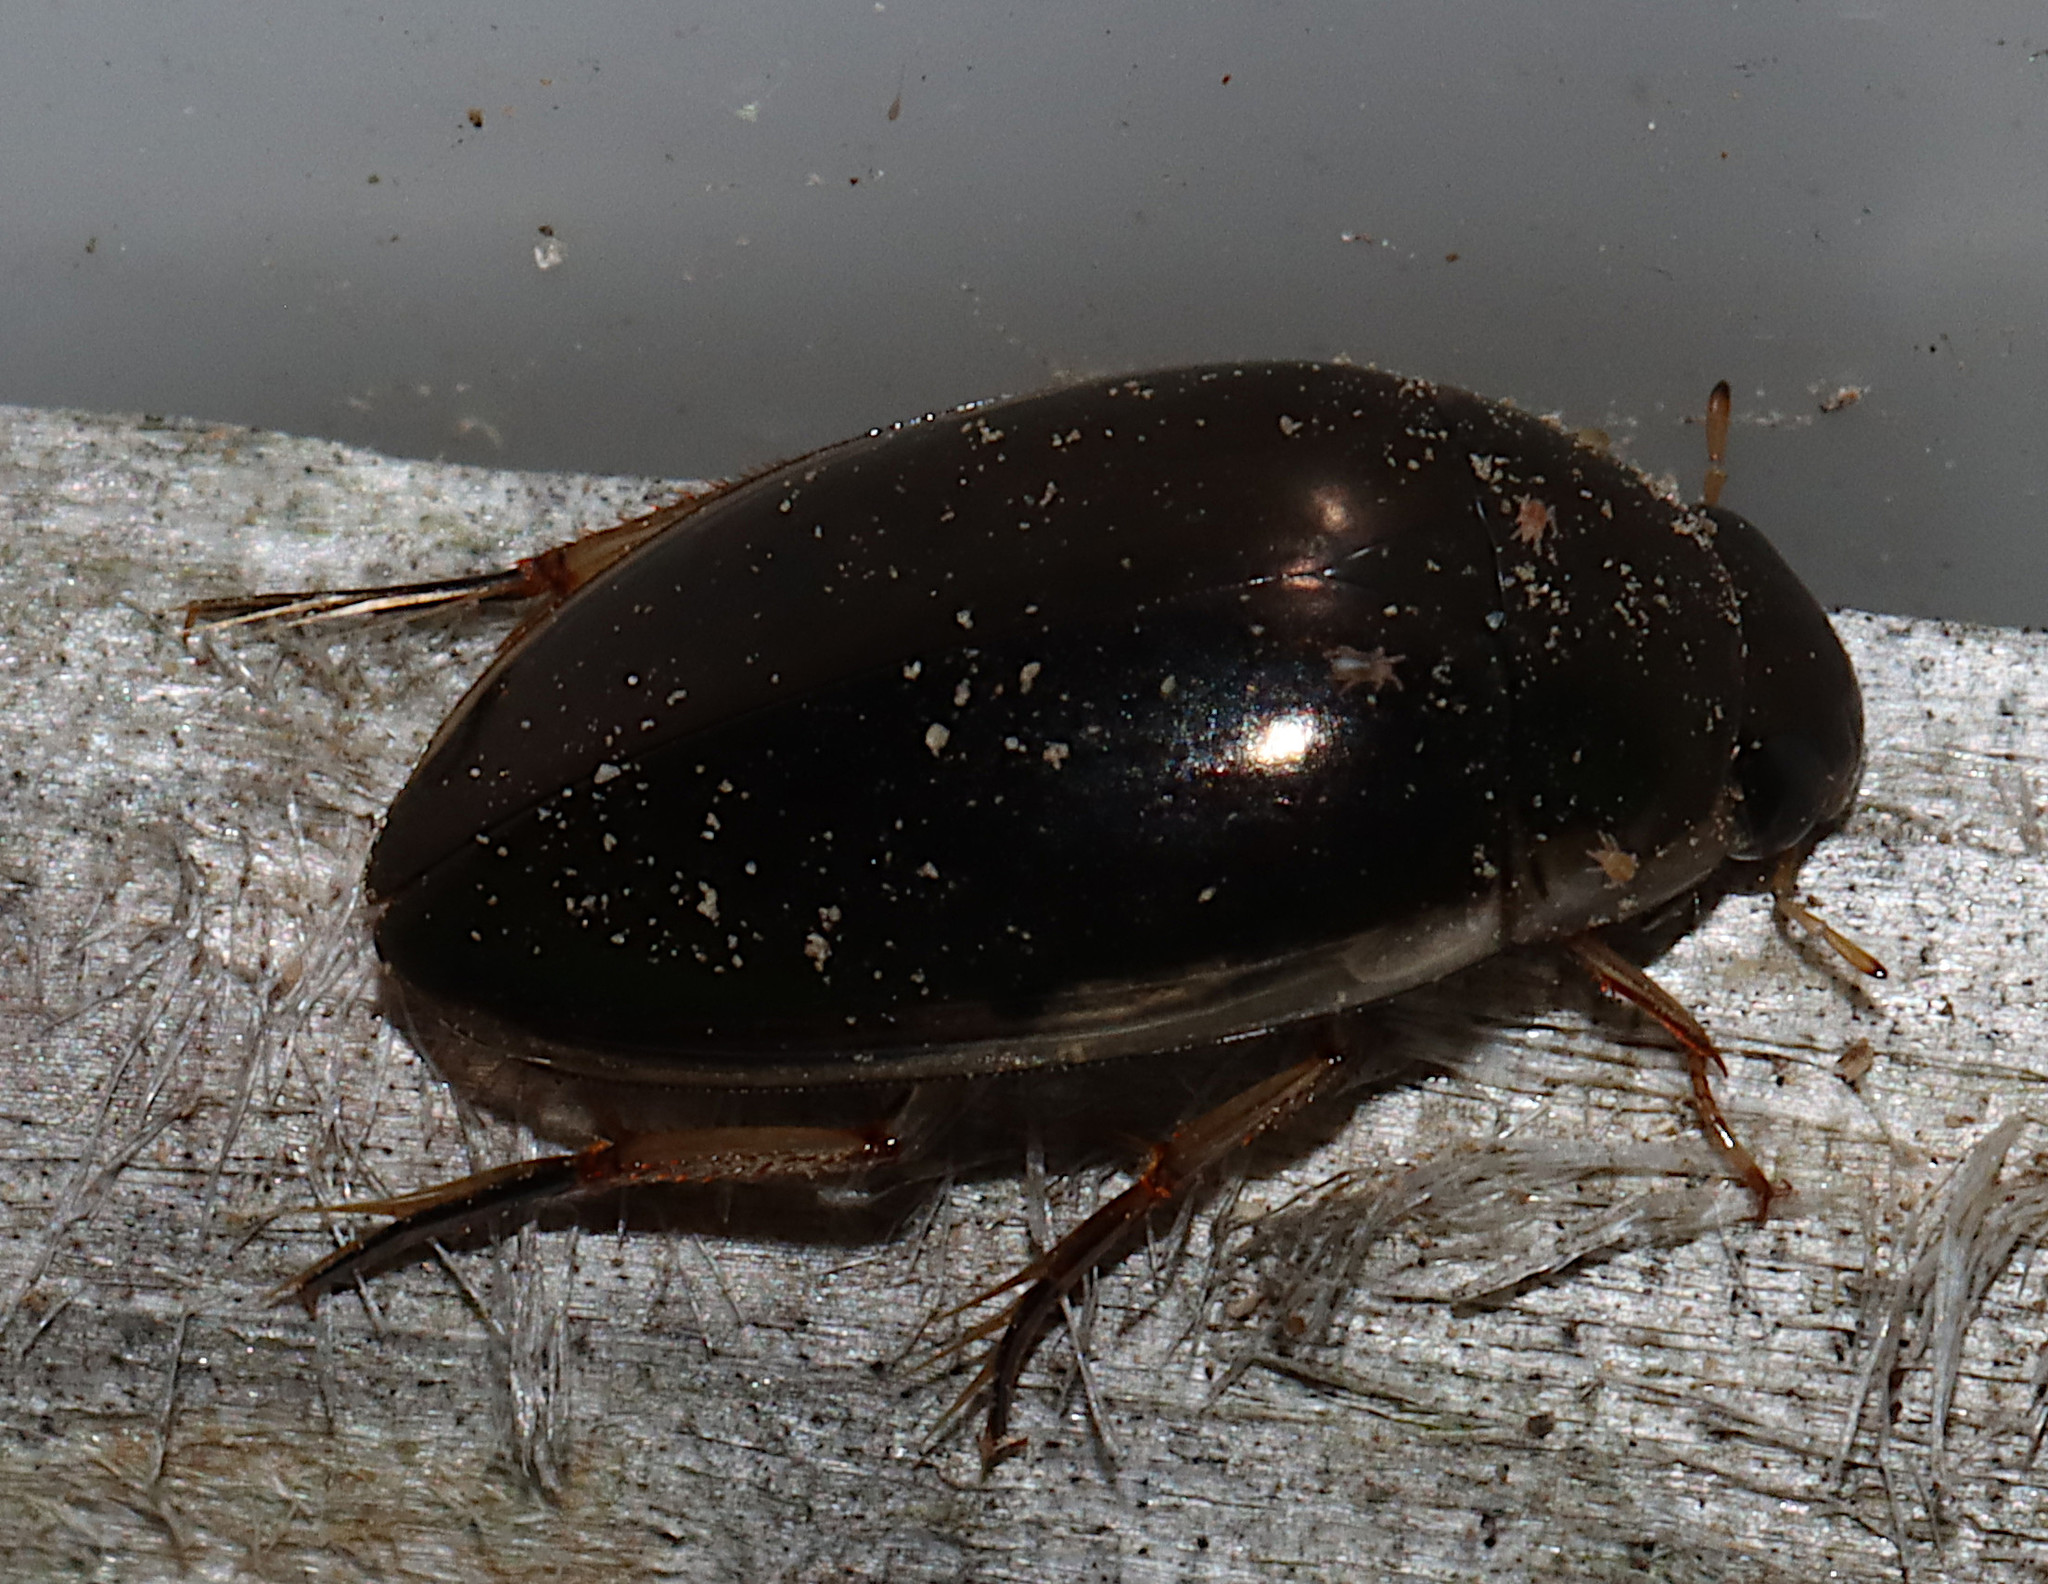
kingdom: Animalia
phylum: Arthropoda
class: Insecta
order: Coleoptera
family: Hydrophilidae
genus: Tropisternus
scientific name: Tropisternus lateralis
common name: Lateral-banded water scavenger beetle
